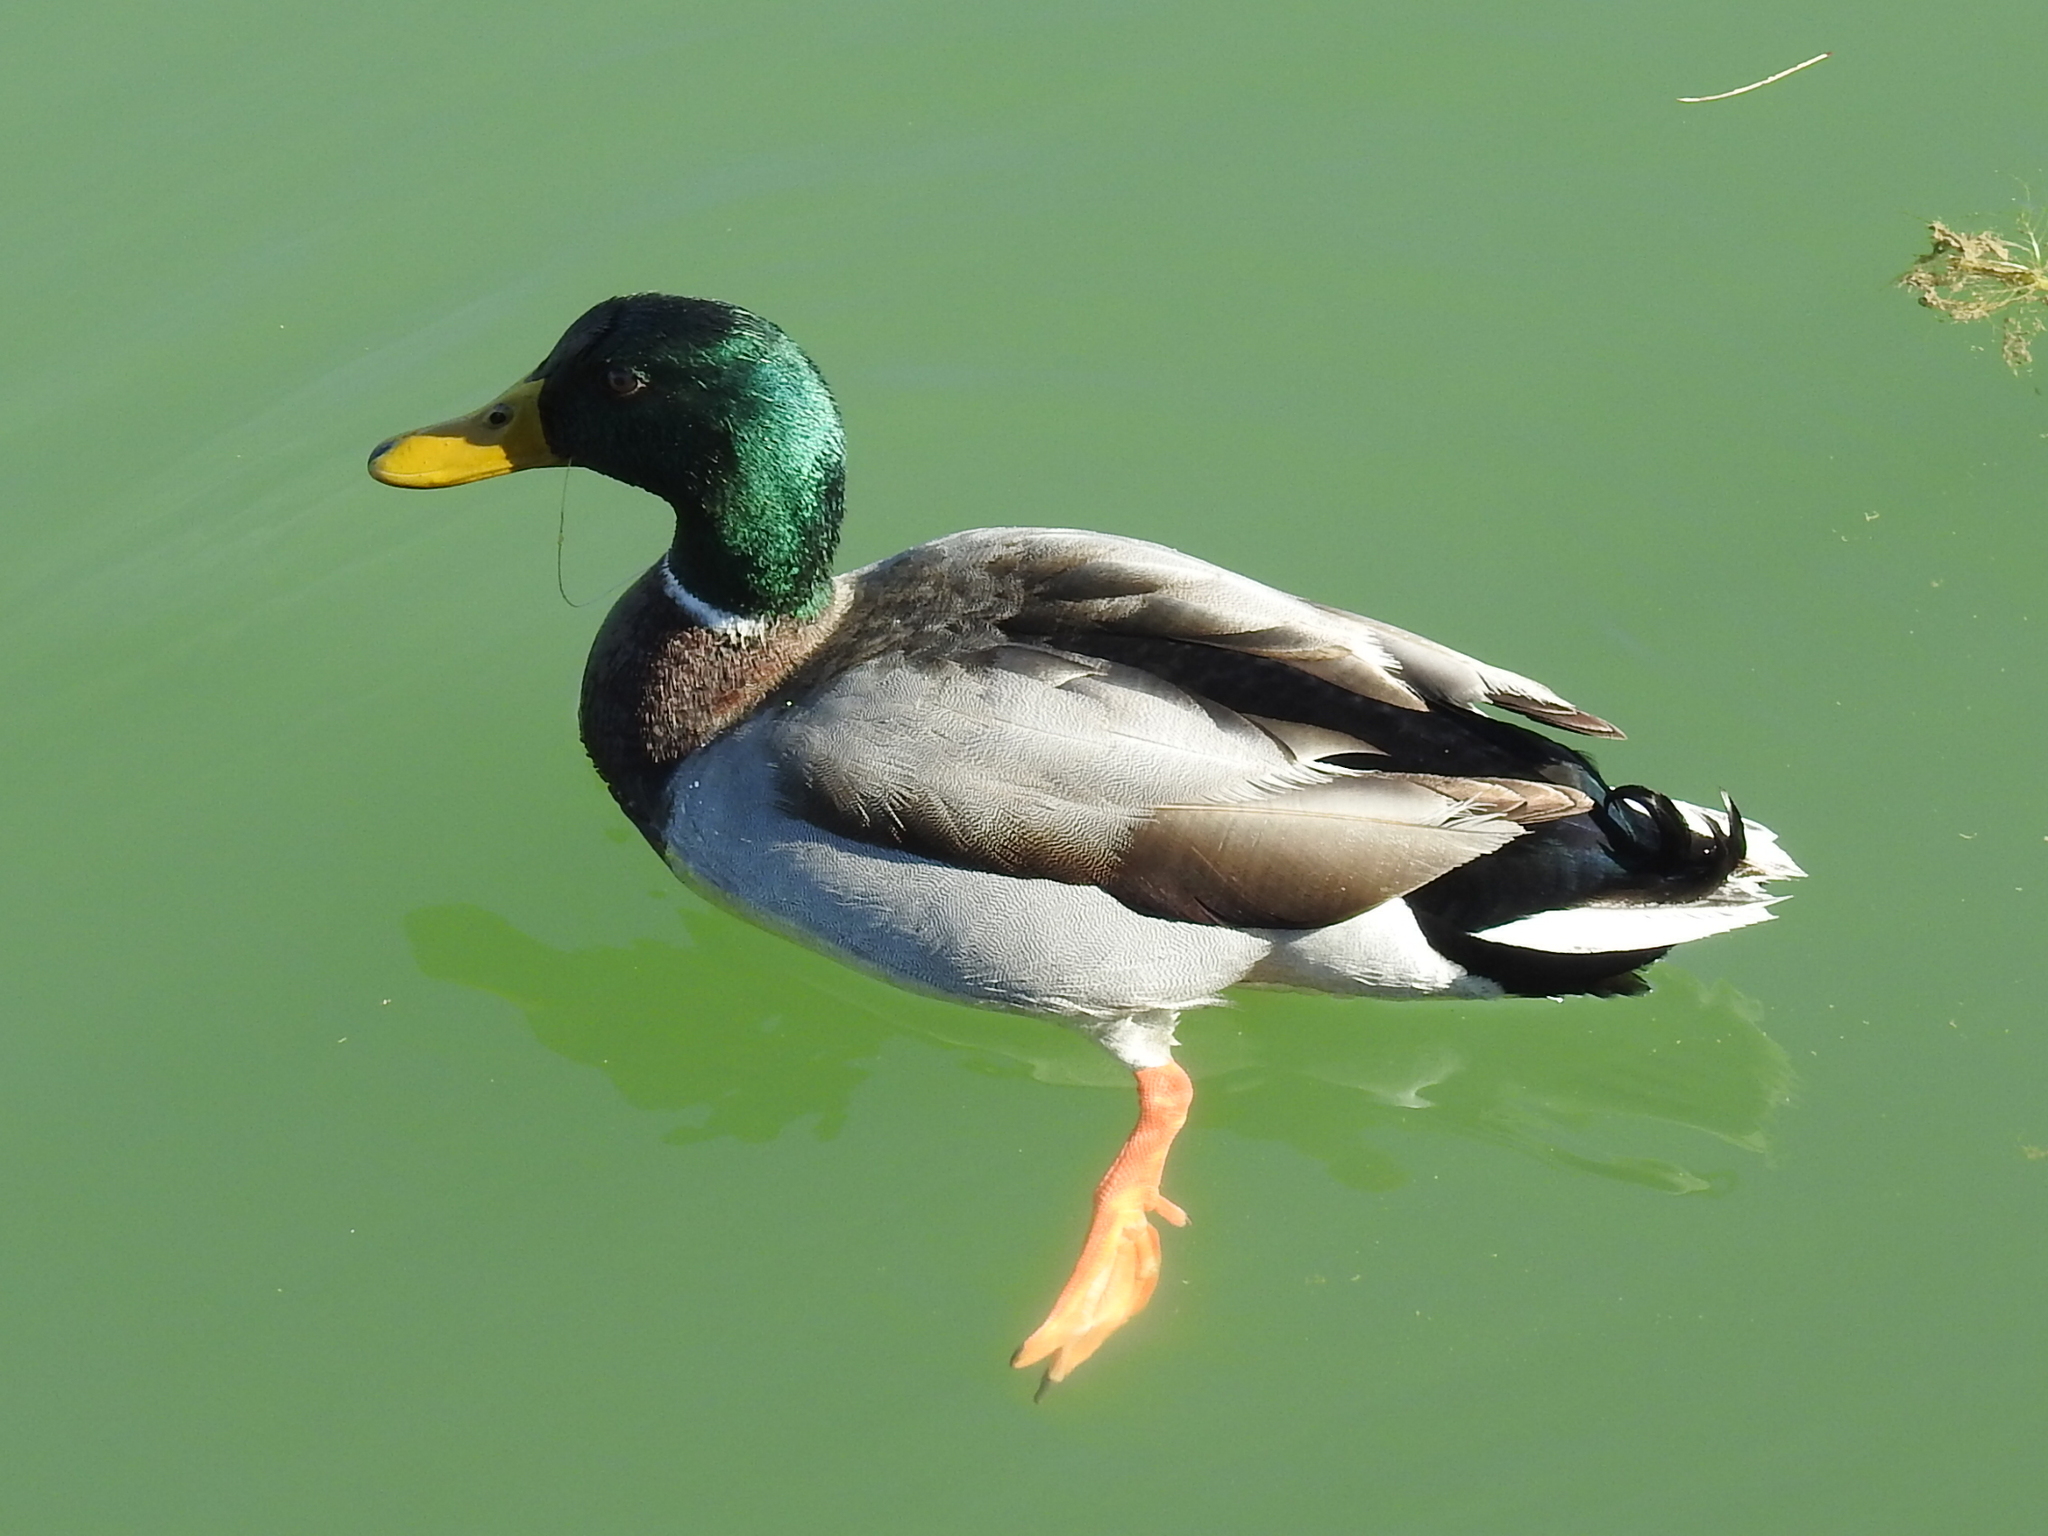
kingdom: Animalia
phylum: Chordata
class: Aves
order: Anseriformes
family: Anatidae
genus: Anas
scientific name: Anas platyrhynchos
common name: Mallard
